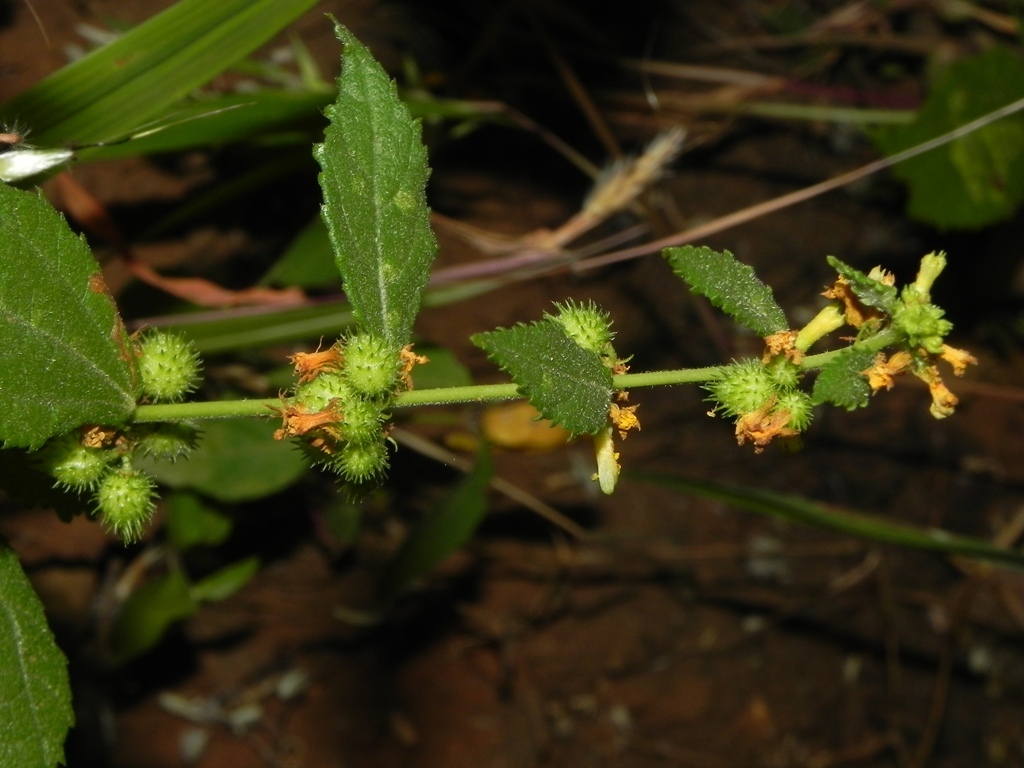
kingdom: Plantae
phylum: Tracheophyta
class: Magnoliopsida
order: Malvales
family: Malvaceae
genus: Triumfetta
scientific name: Triumfetta rhomboidea
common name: Diamond burbark
